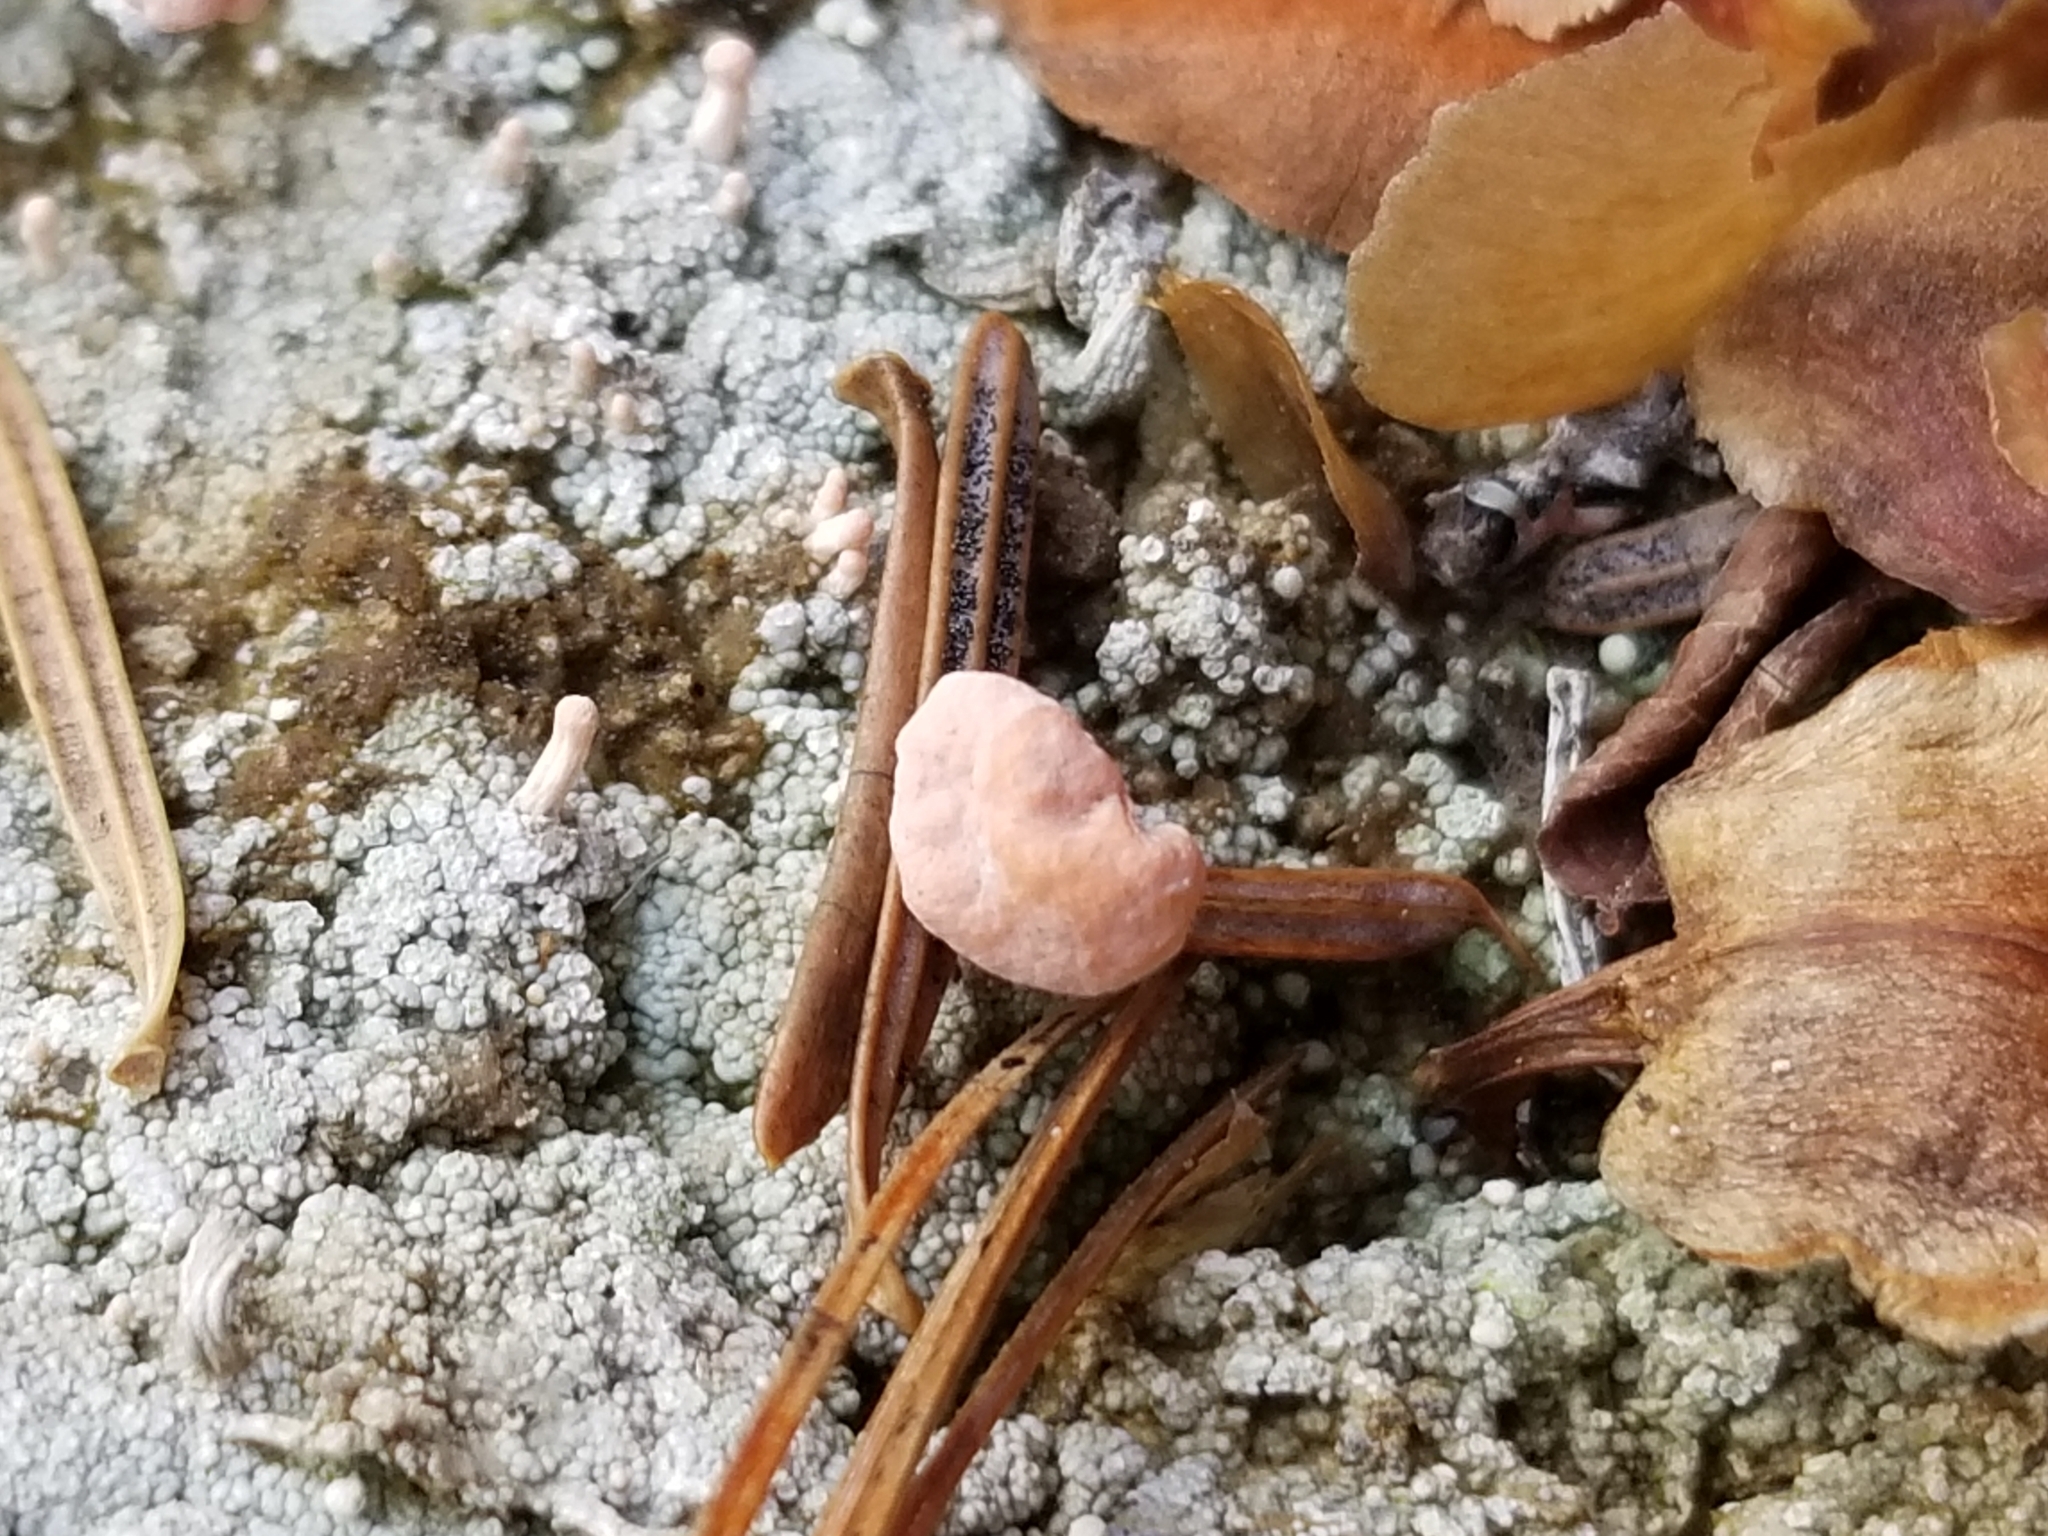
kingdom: Fungi
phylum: Ascomycota
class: Lecanoromycetes
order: Pertusariales
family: Icmadophilaceae
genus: Dibaeis
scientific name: Dibaeis baeomyces
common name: Pink earth lichen
